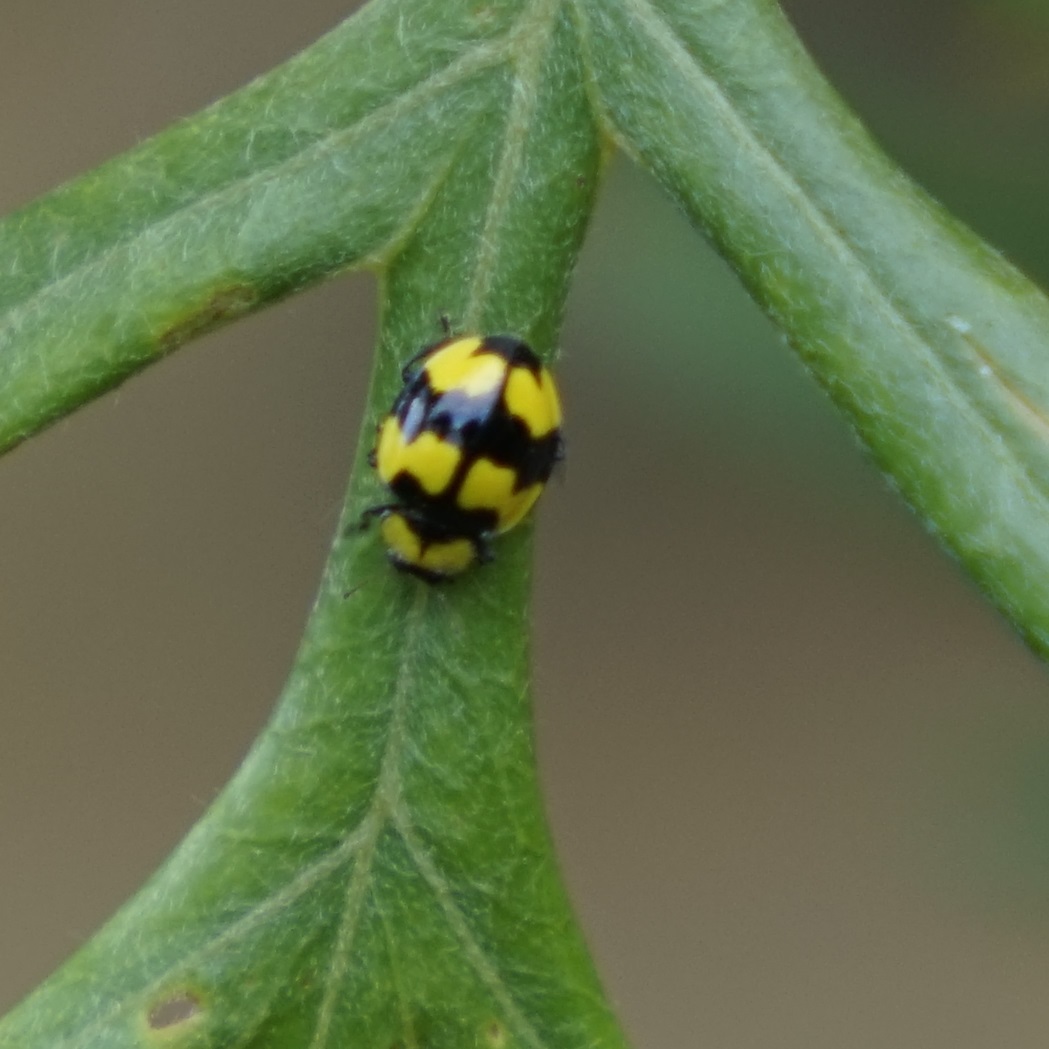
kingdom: Animalia
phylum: Arthropoda
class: Insecta
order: Coleoptera
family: Coccinellidae
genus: Illeis
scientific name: Illeis galbula
